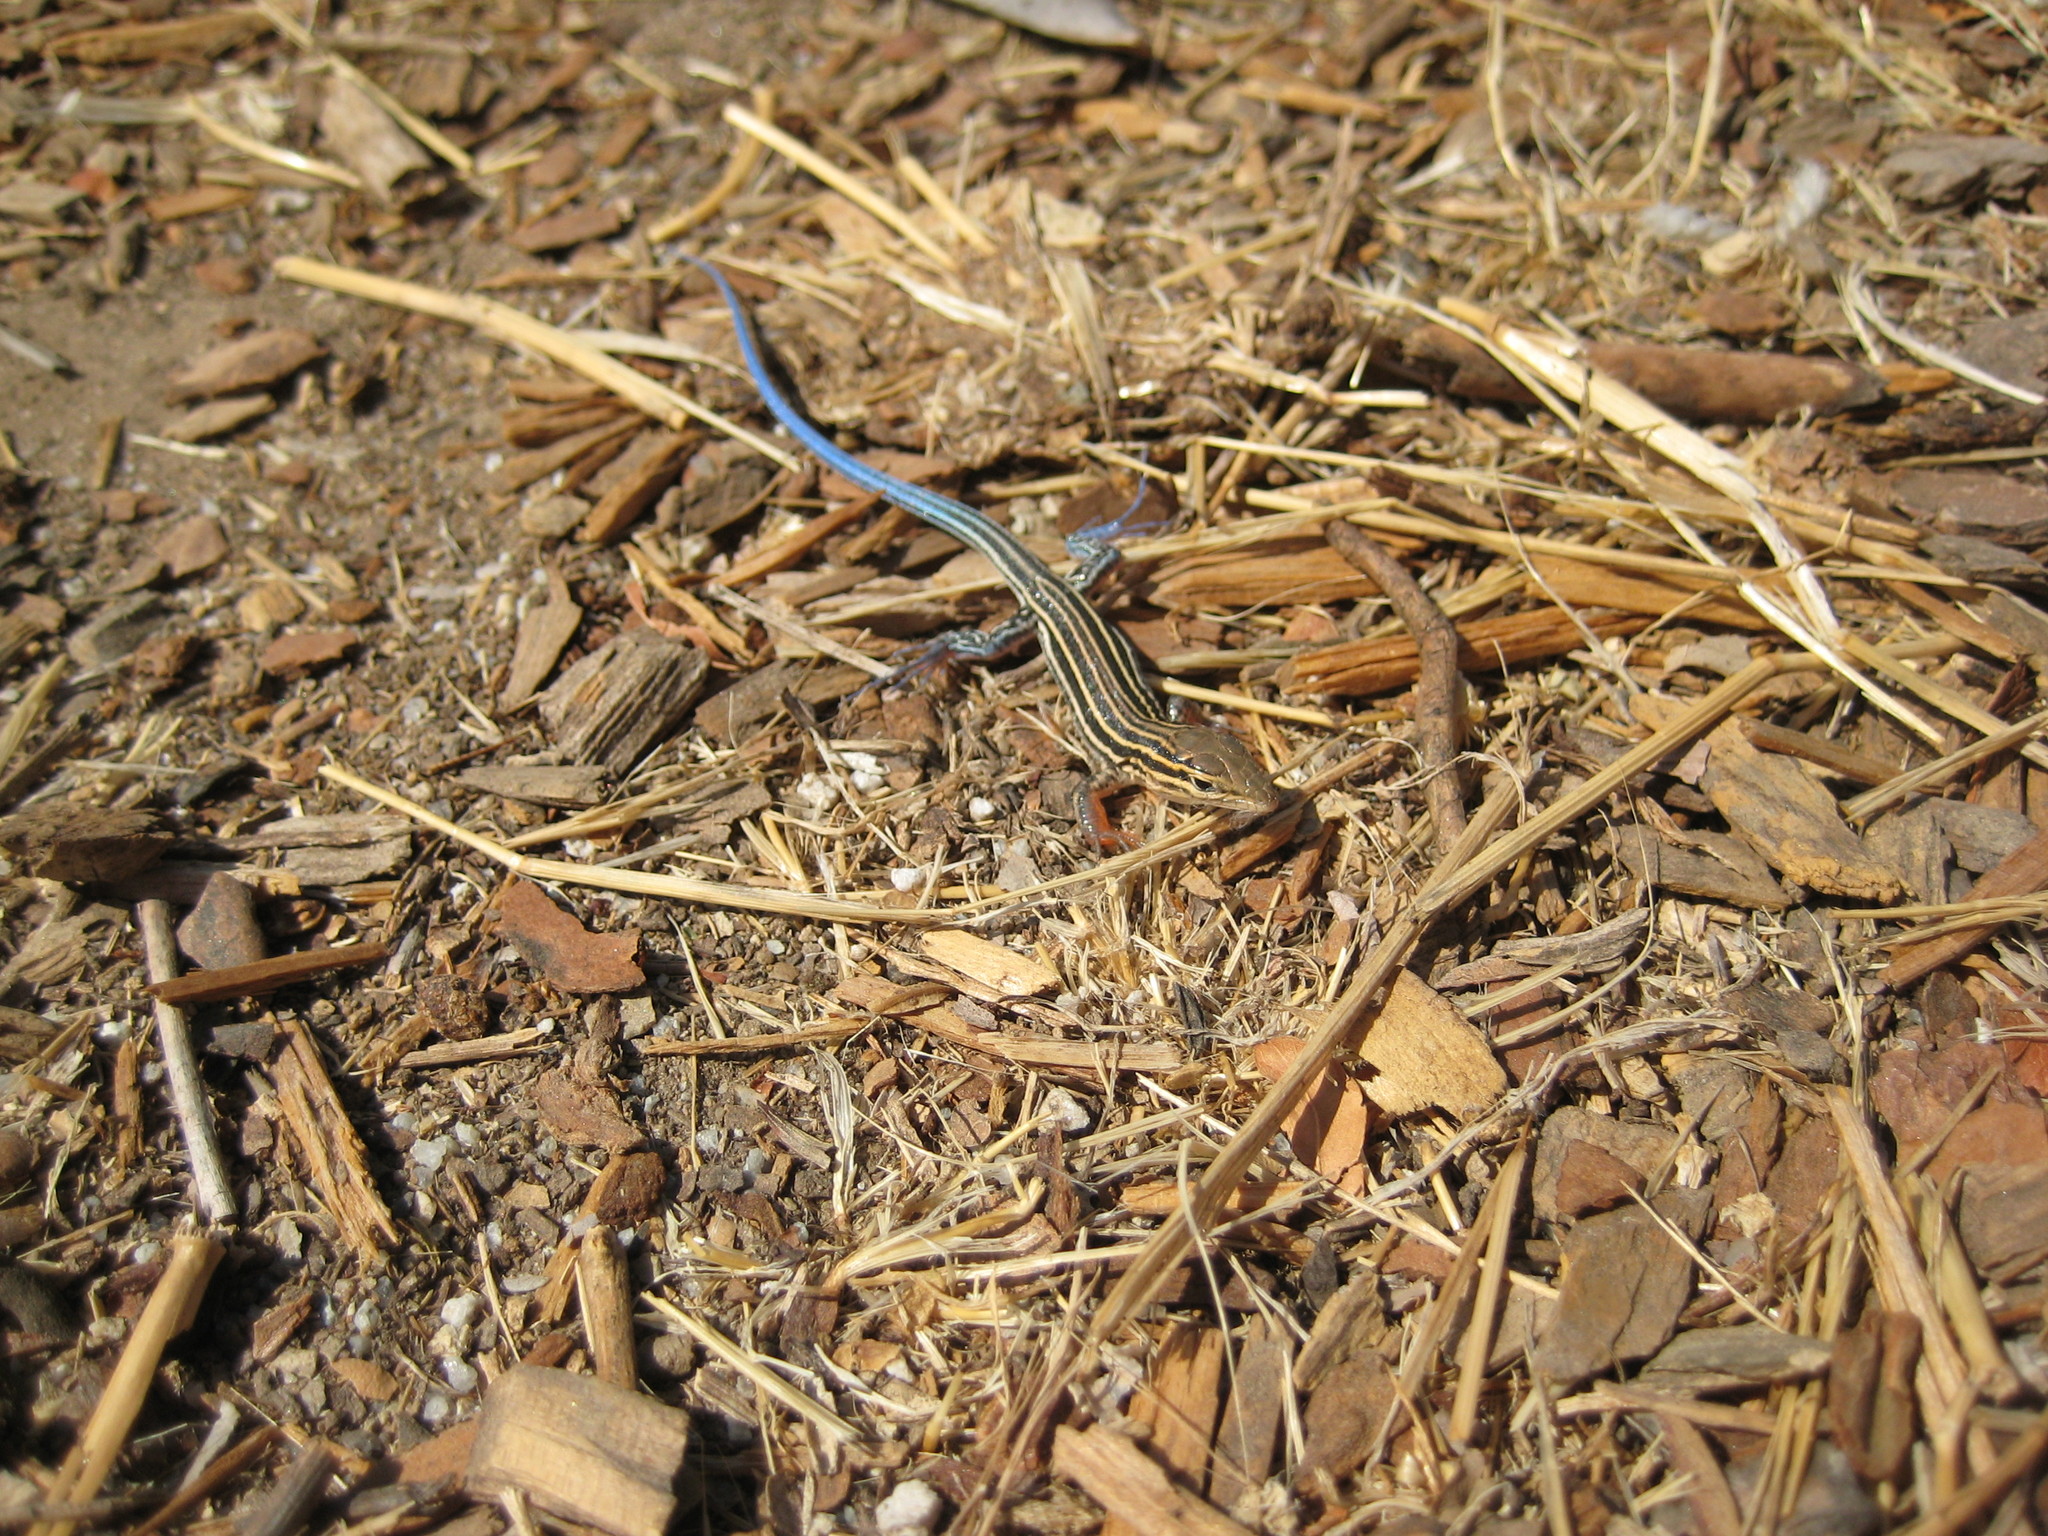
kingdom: Animalia
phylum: Chordata
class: Squamata
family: Teiidae
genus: Aspidoscelis
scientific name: Aspidoscelis hyperythrus
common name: Orange-throated race-runner
